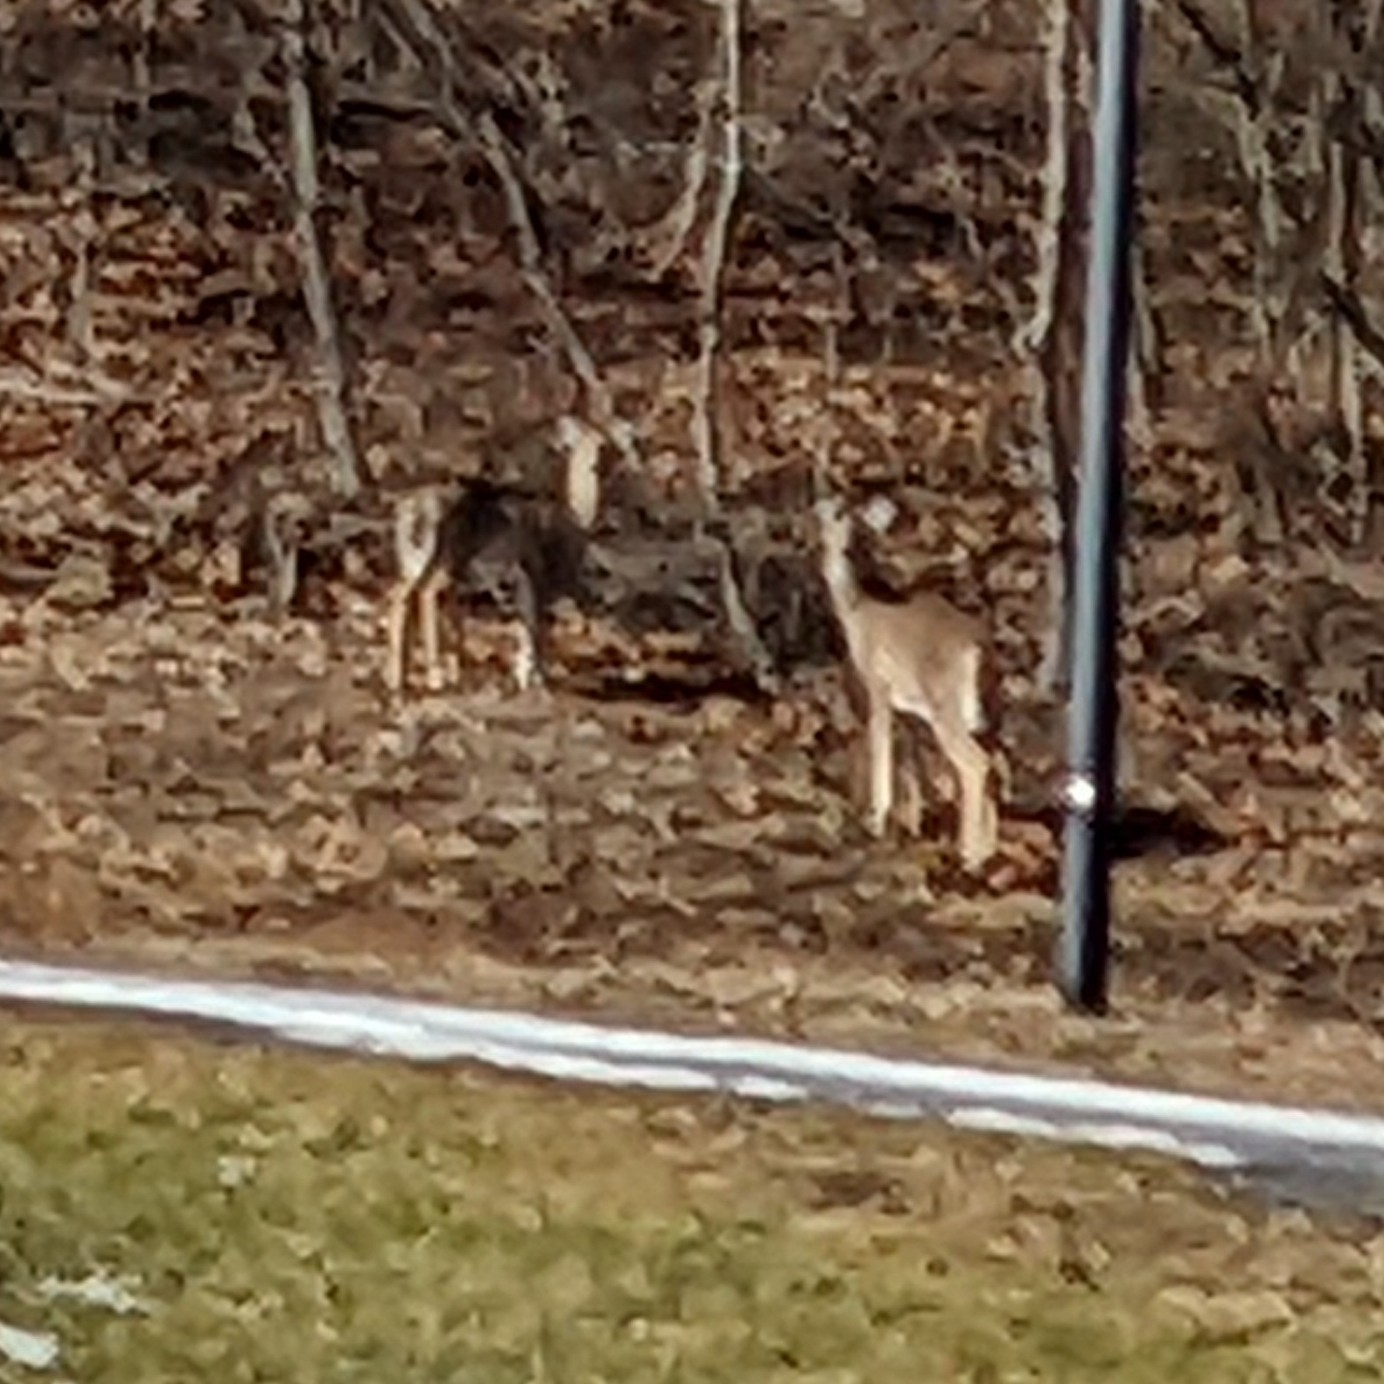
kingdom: Animalia
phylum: Chordata
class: Mammalia
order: Artiodactyla
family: Cervidae
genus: Odocoileus
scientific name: Odocoileus virginianus
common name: White-tailed deer
